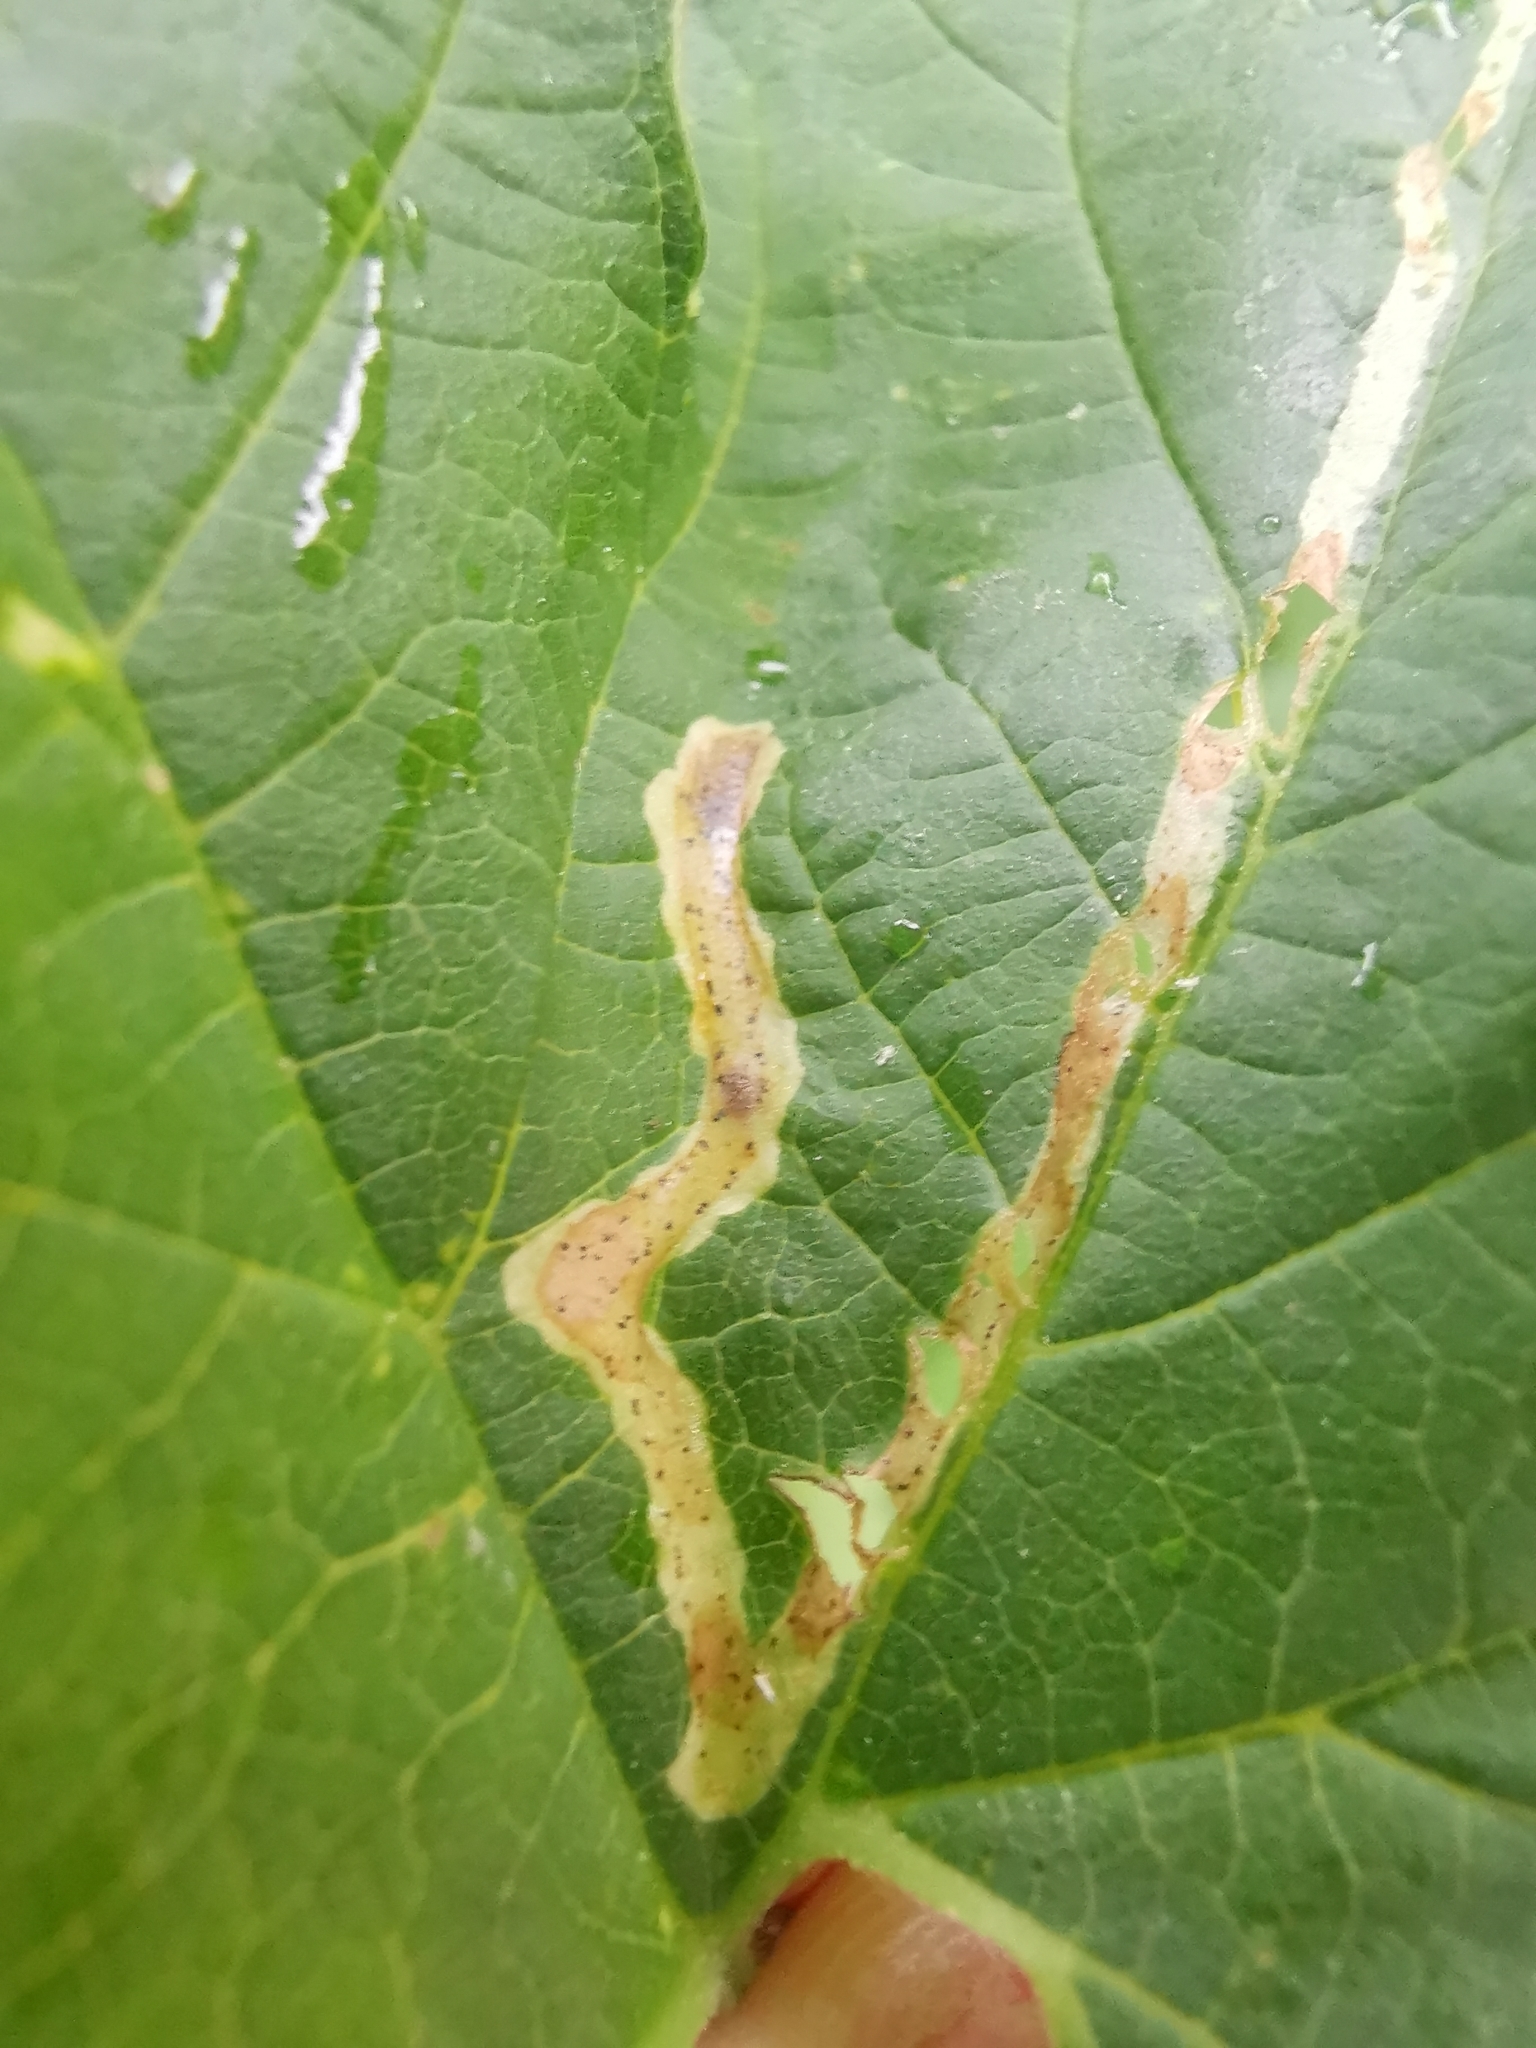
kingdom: Animalia
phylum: Arthropoda
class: Insecta
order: Diptera
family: Agromyzidae
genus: Agromyza
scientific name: Agromyza igniceps
